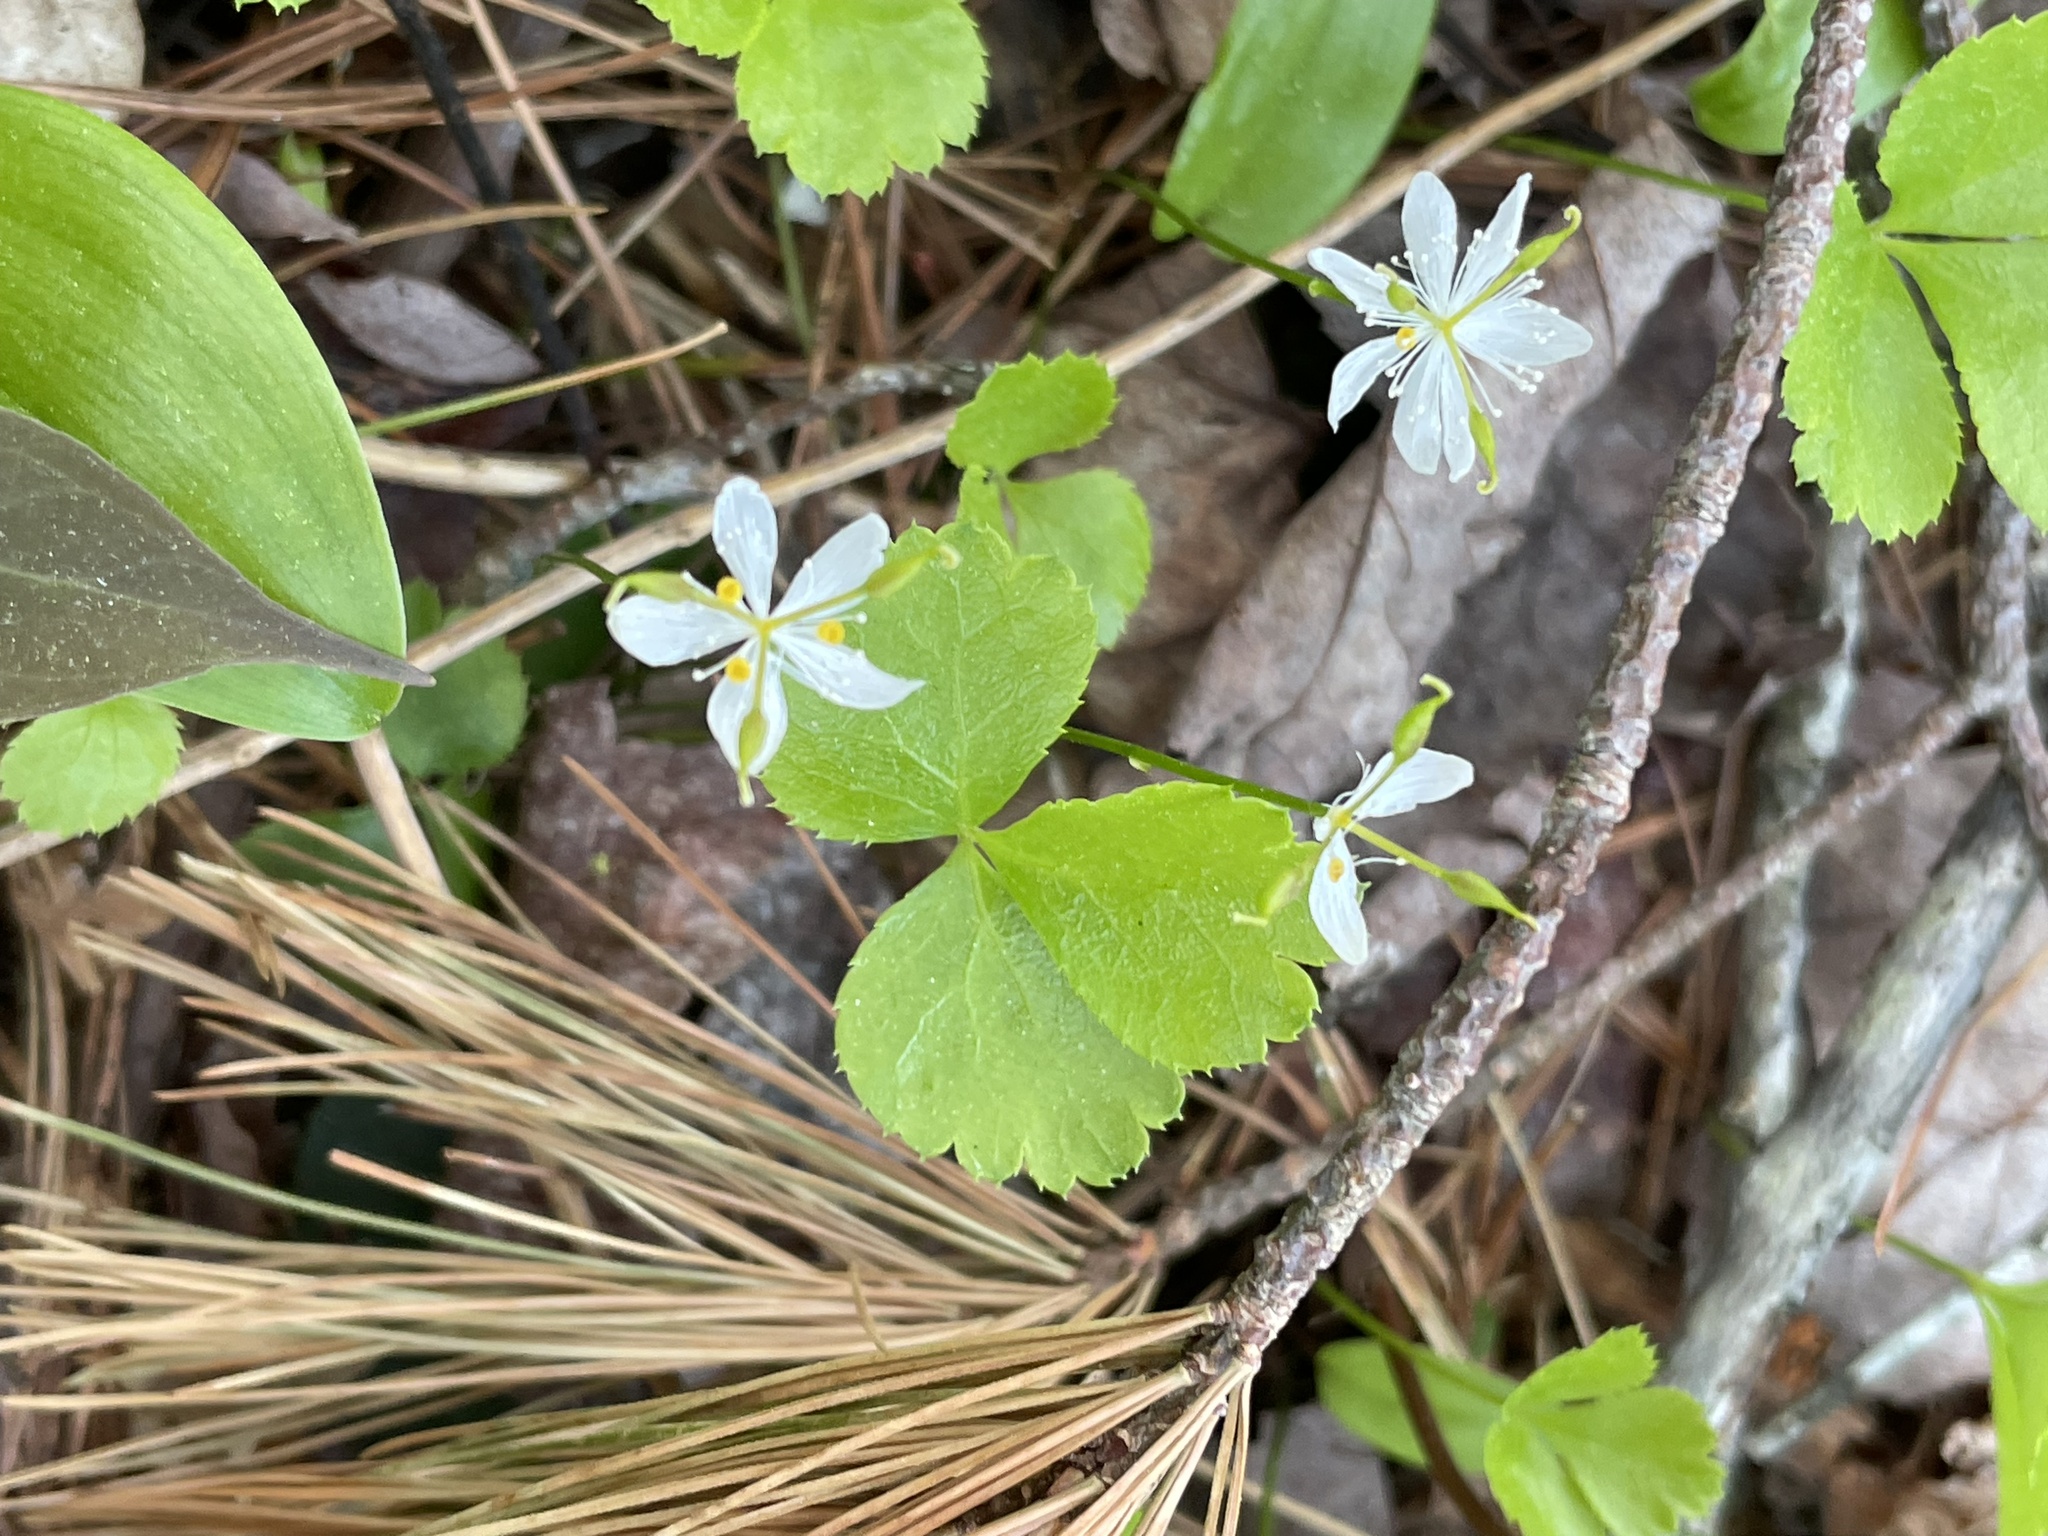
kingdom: Plantae
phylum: Tracheophyta
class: Magnoliopsida
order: Ranunculales
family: Ranunculaceae
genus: Coptis
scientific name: Coptis trifolia
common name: Canker-root
